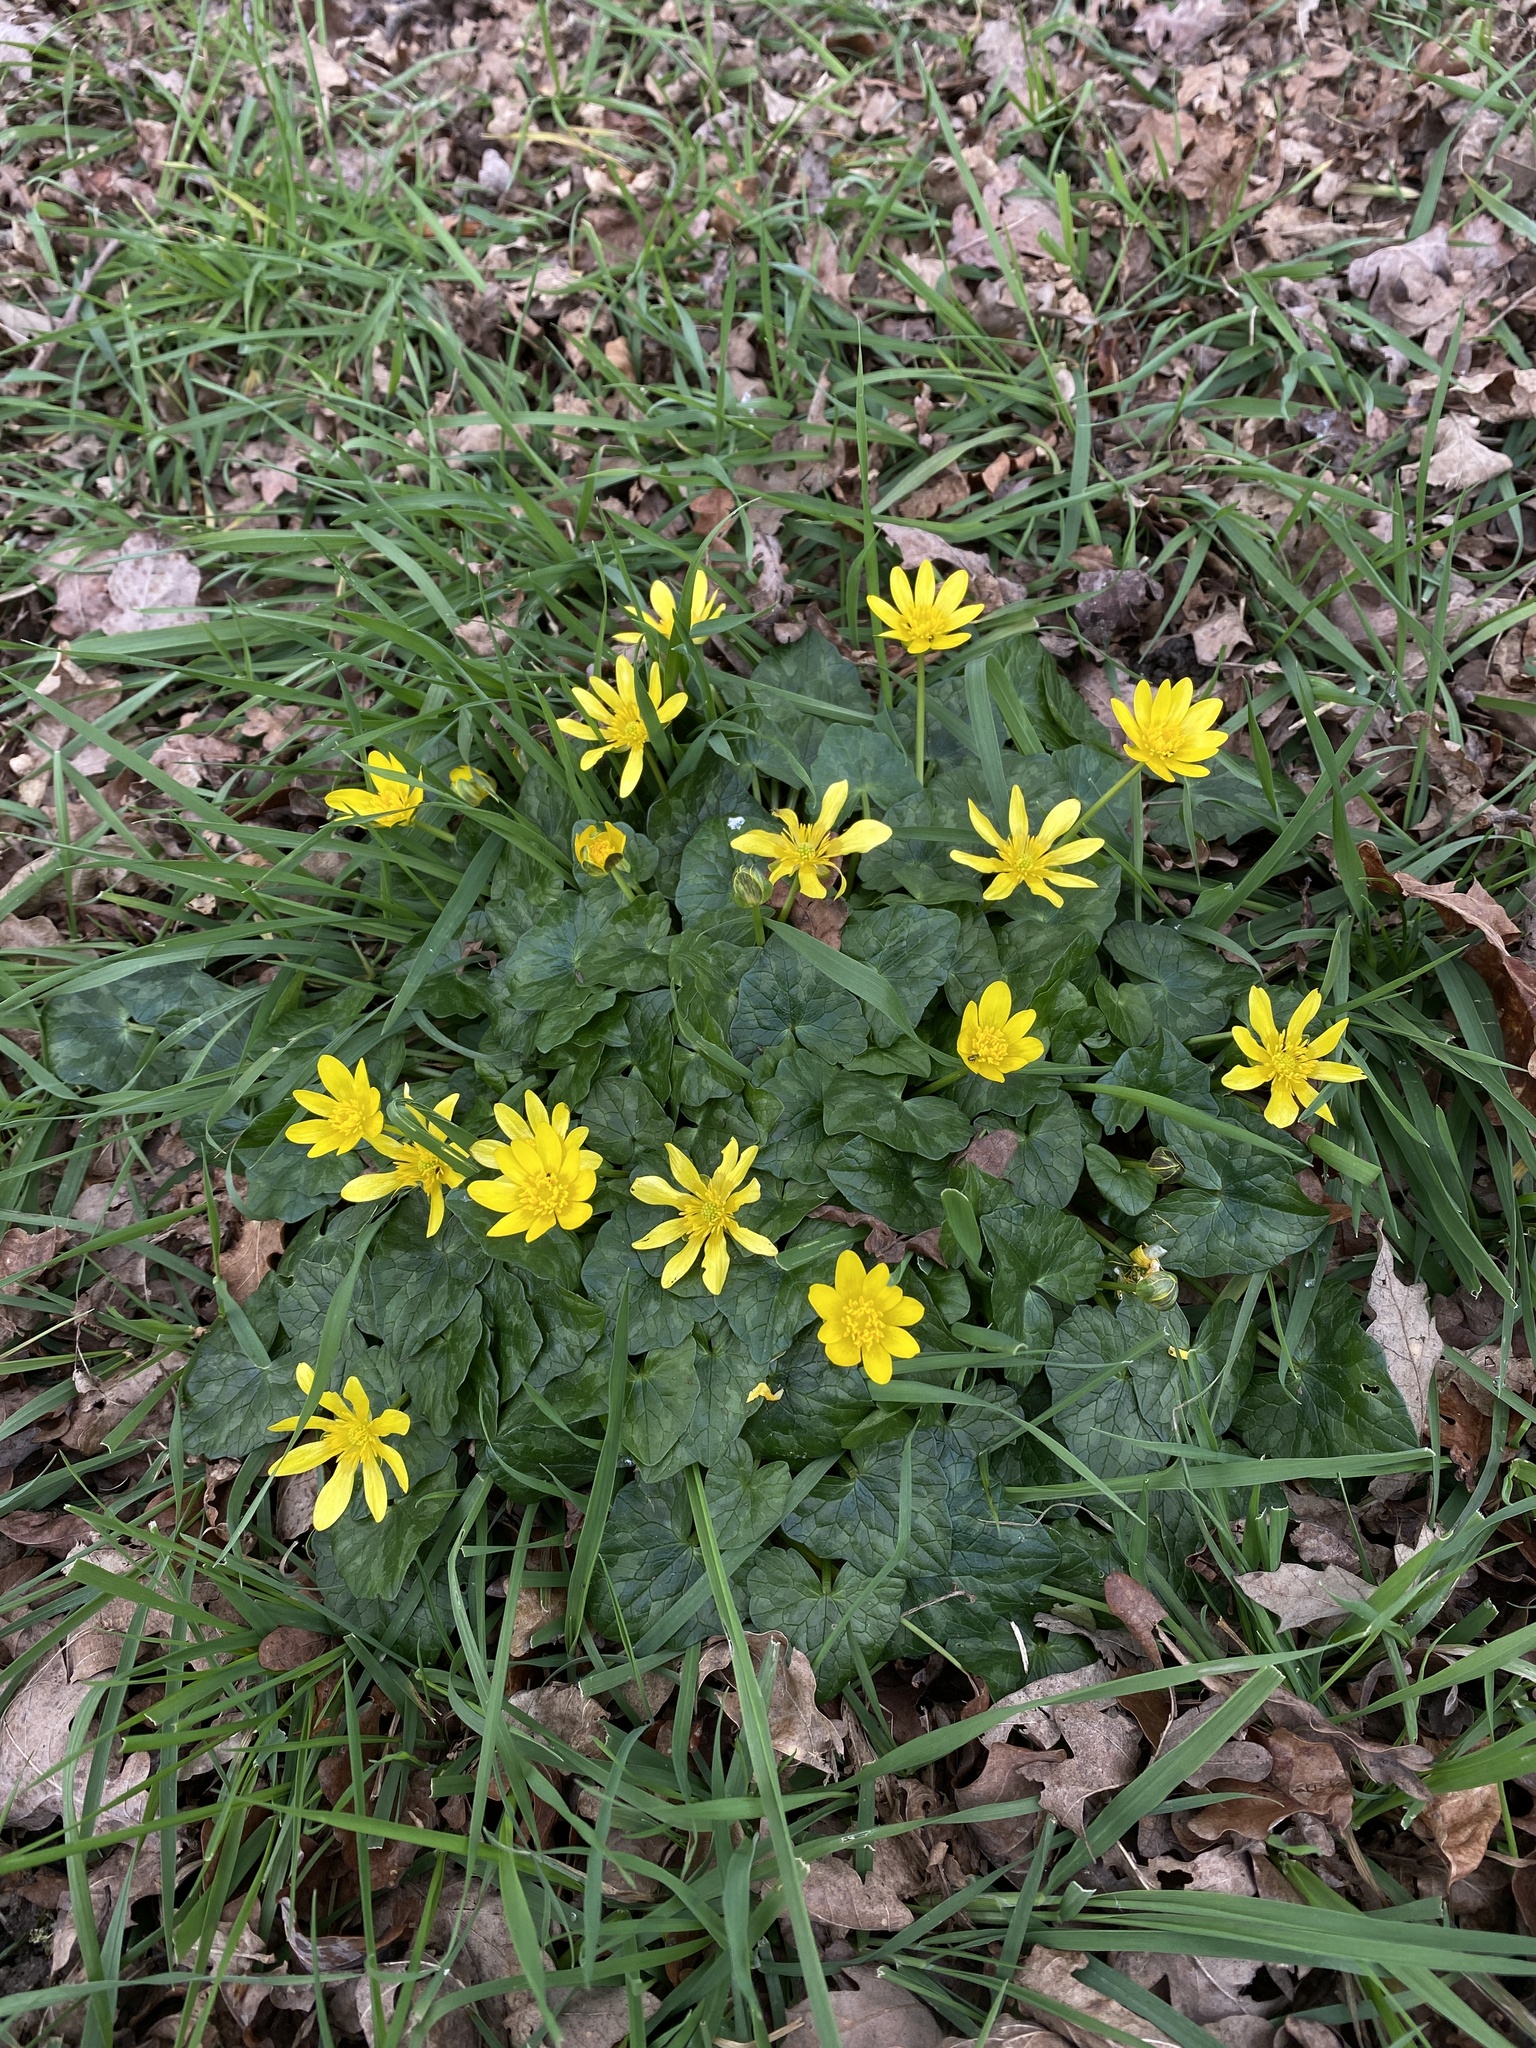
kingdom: Plantae
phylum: Tracheophyta
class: Magnoliopsida
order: Ranunculales
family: Ranunculaceae
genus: Ficaria
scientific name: Ficaria verna
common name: Lesser celandine
